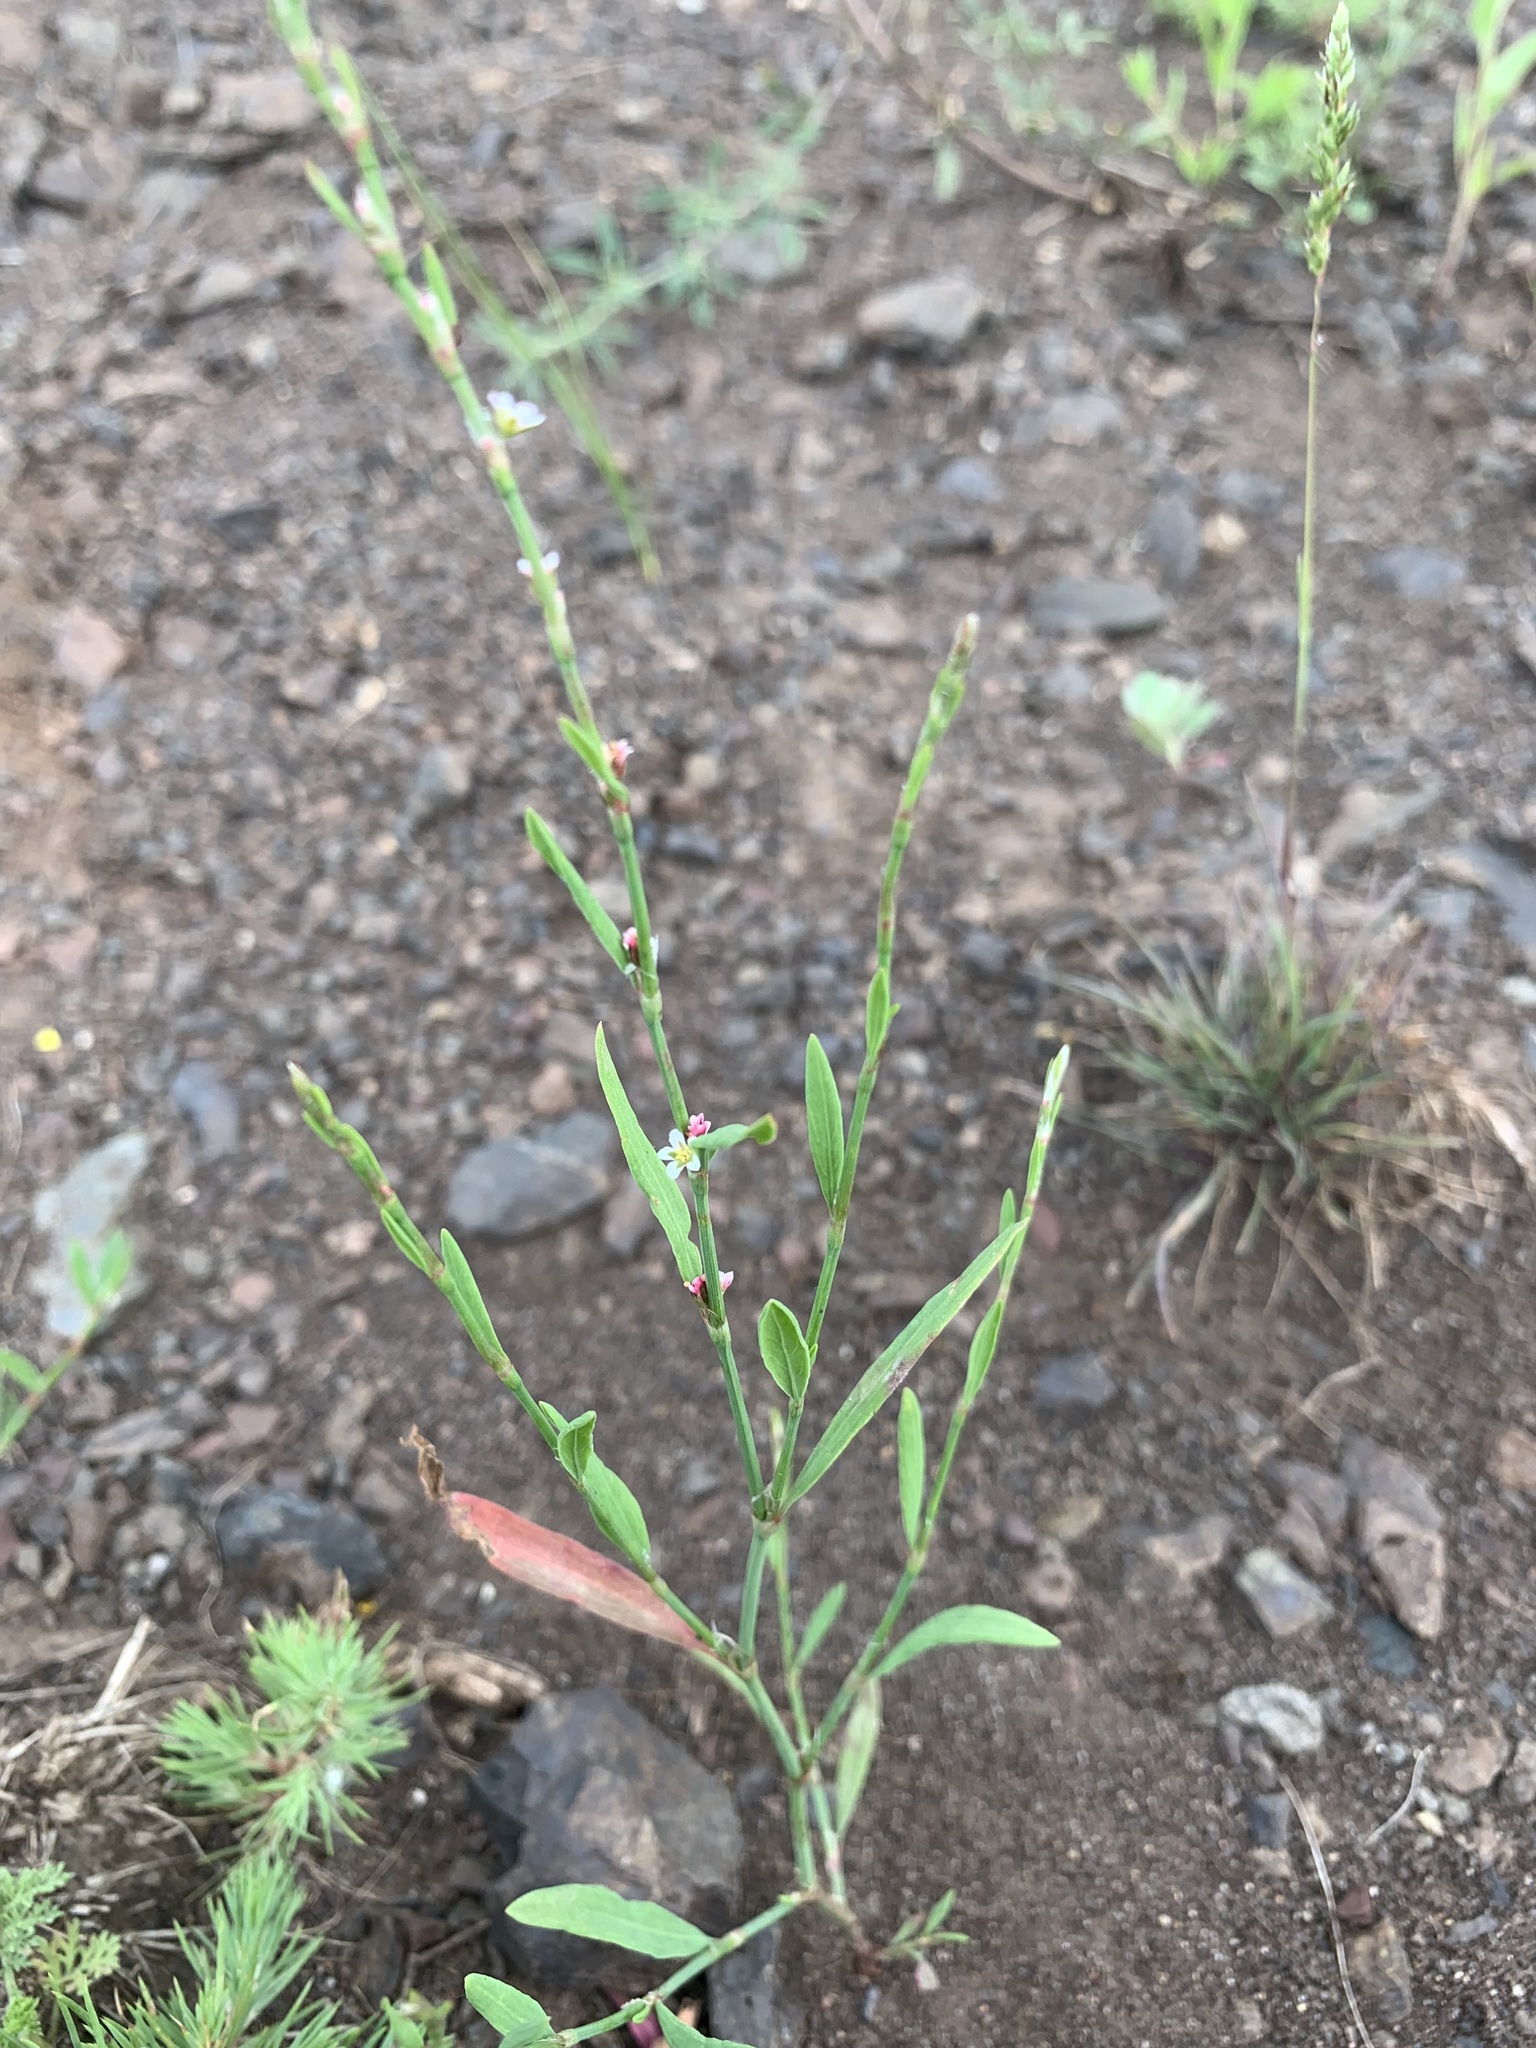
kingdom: Plantae
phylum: Tracheophyta
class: Magnoliopsida
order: Caryophyllales
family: Polygonaceae
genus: Polygonum
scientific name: Polygonum patulum
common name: Red-knotgrass
